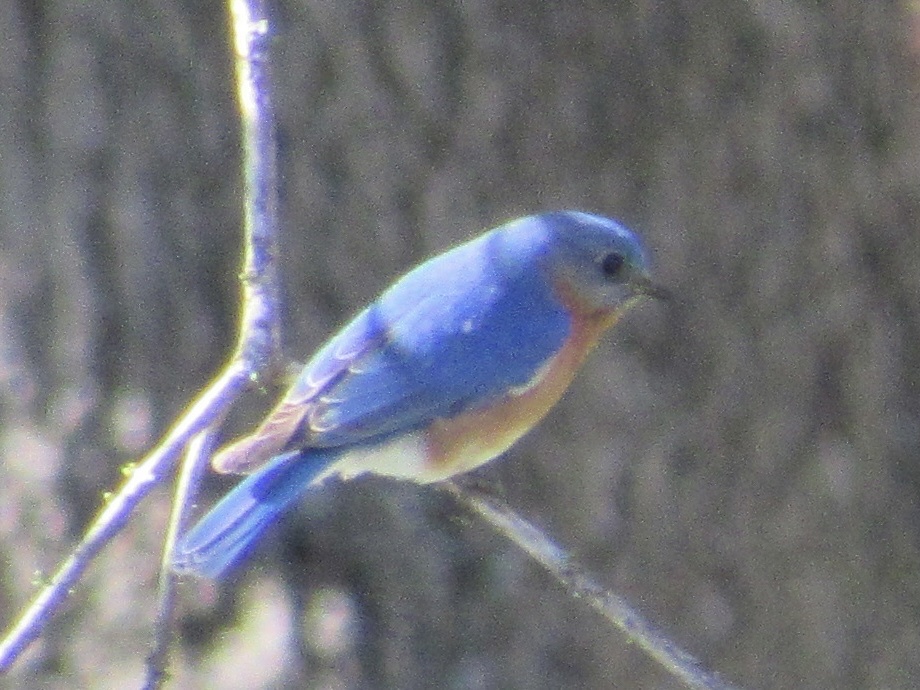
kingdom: Animalia
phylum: Chordata
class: Aves
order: Passeriformes
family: Turdidae
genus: Sialia
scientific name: Sialia sialis
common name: Eastern bluebird
